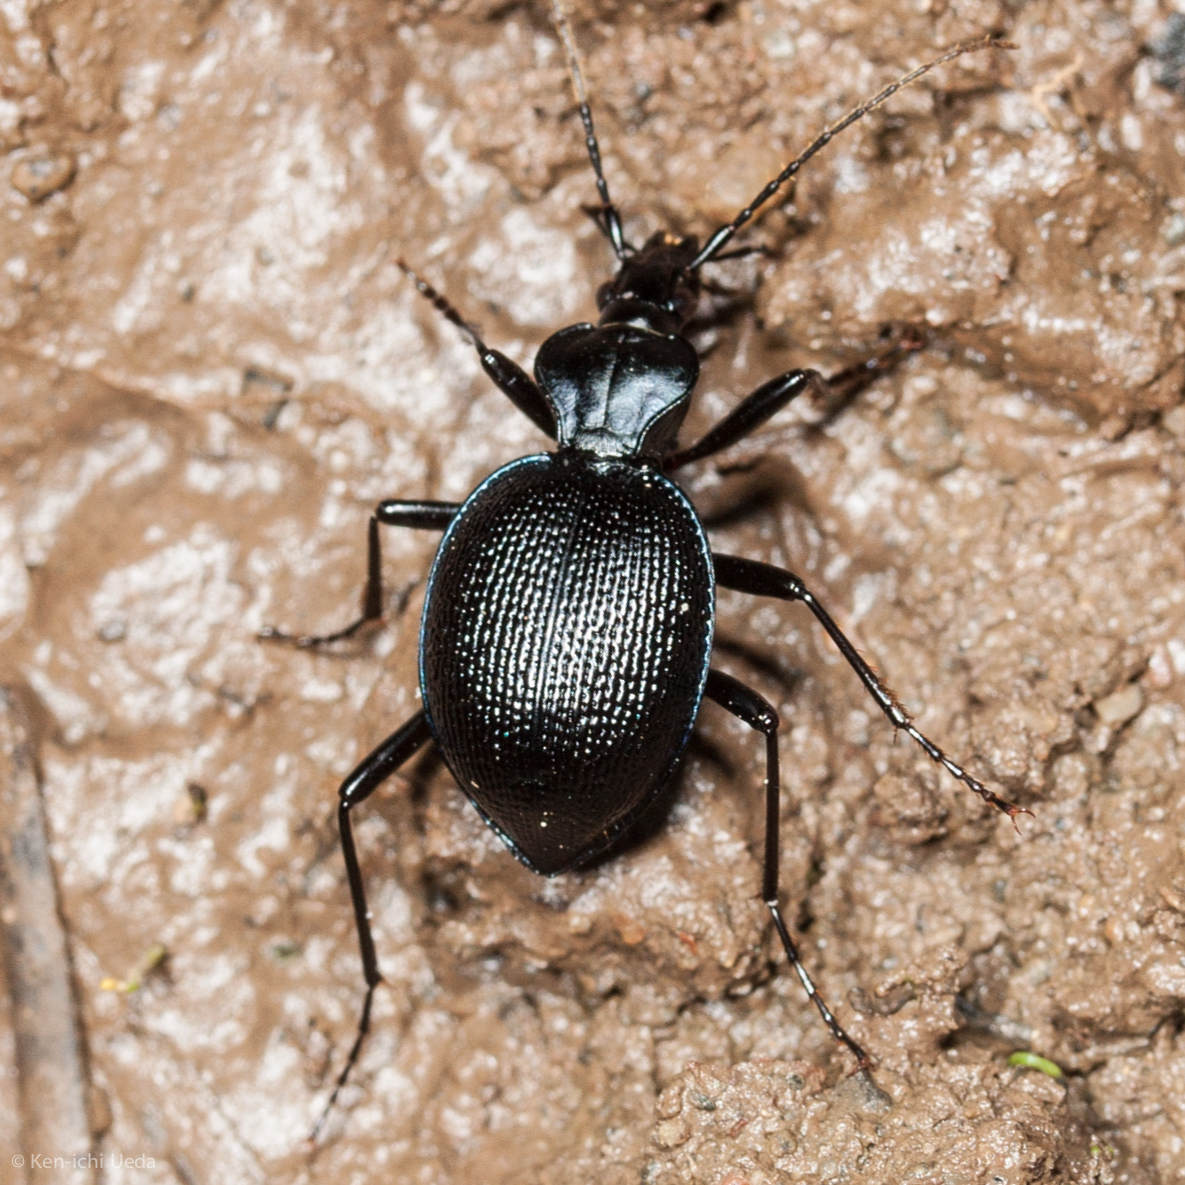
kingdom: Animalia
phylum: Arthropoda
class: Insecta
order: Coleoptera
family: Carabidae
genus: Scaphinotus
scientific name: Scaphinotus interruptus
